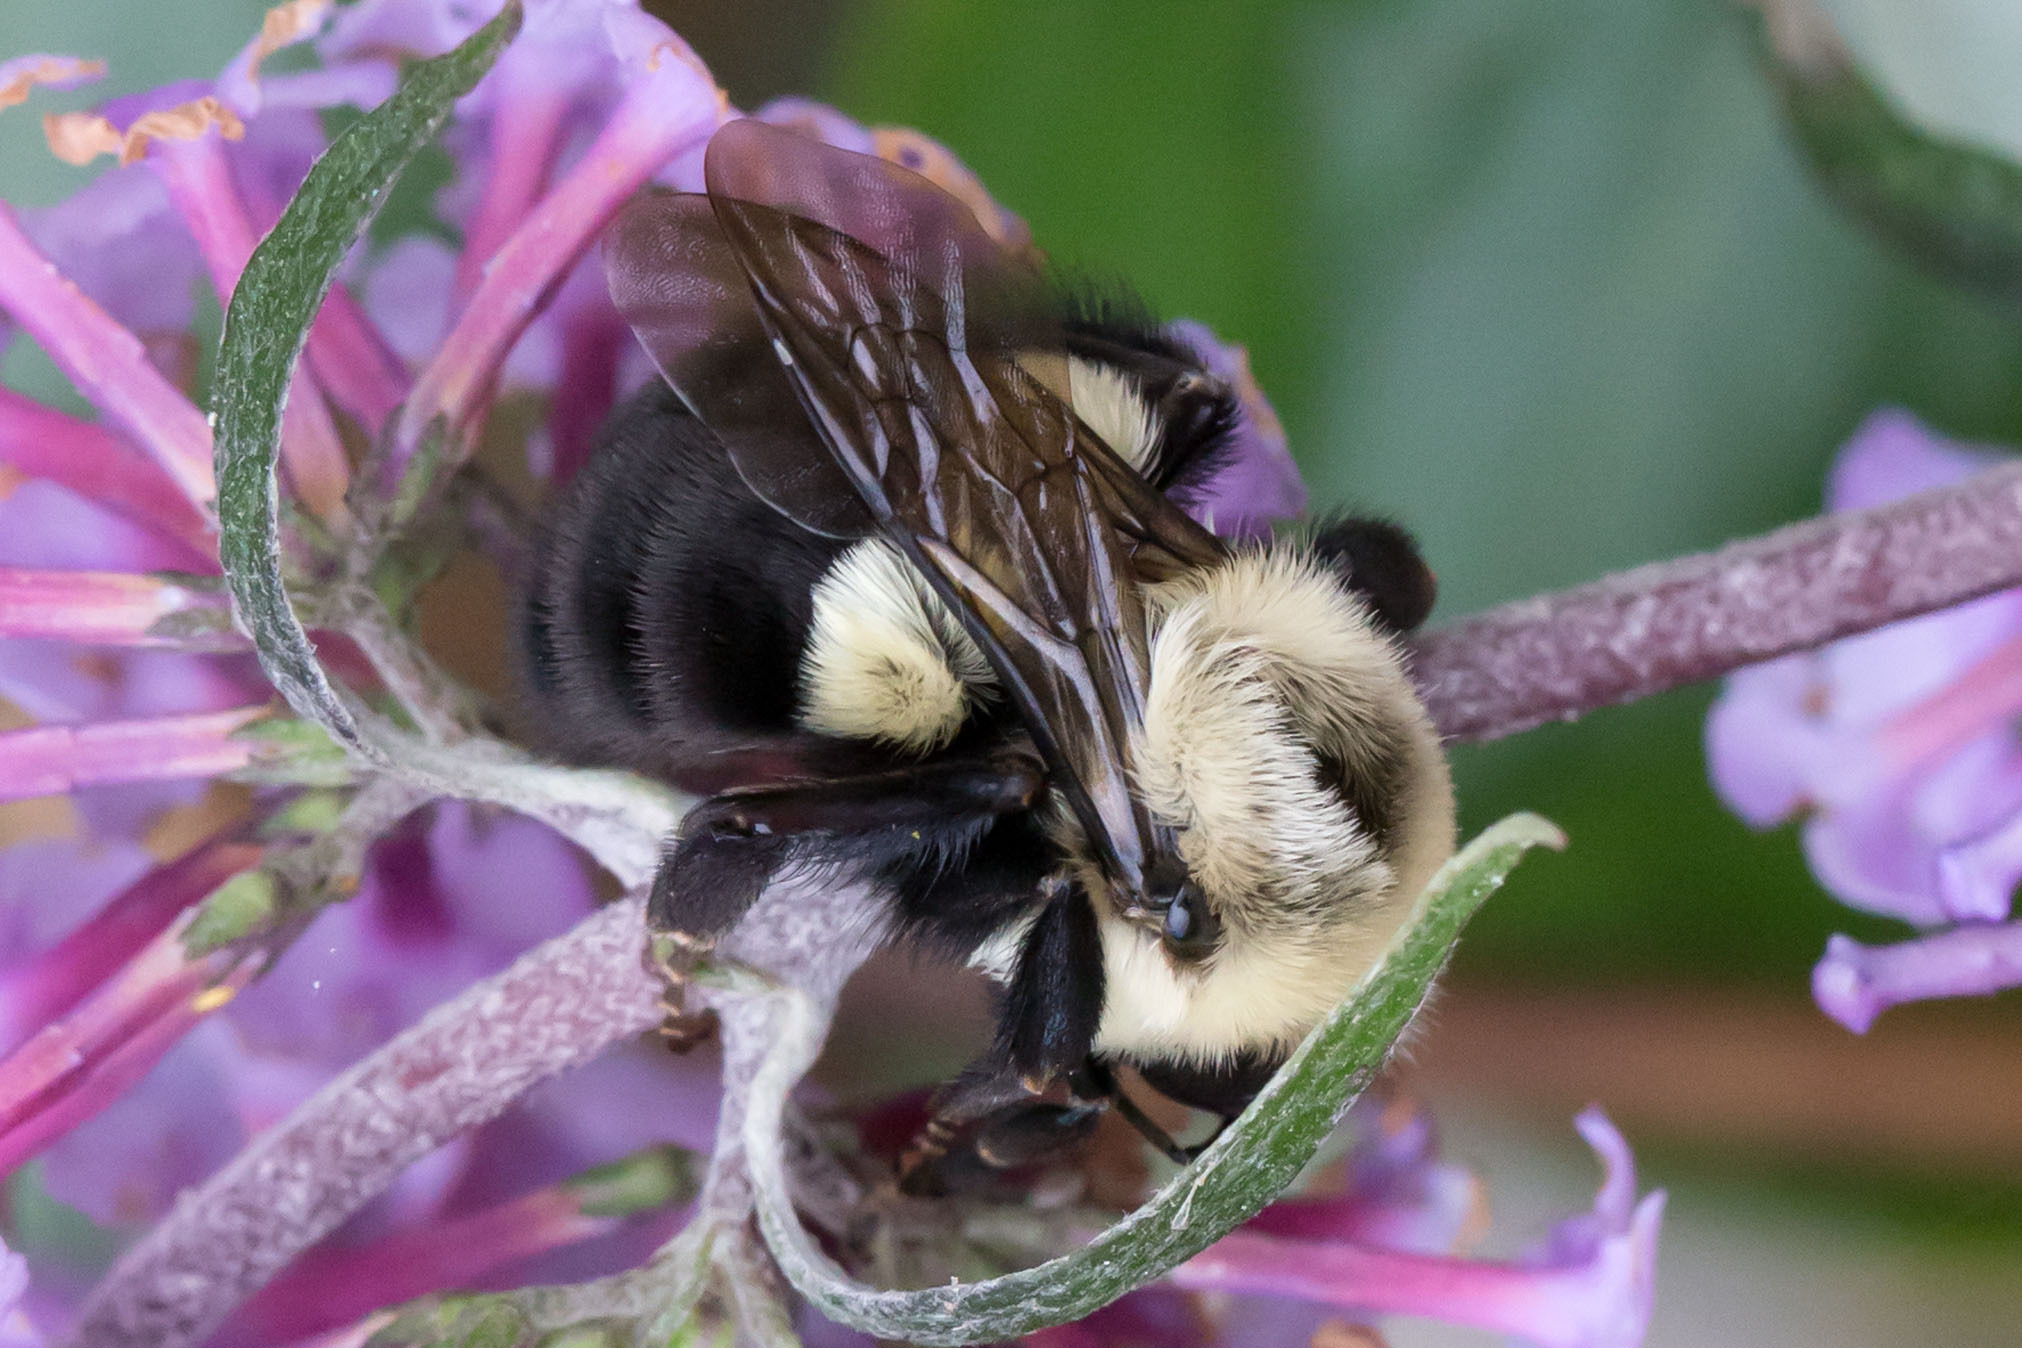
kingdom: Animalia
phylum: Arthropoda
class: Insecta
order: Hymenoptera
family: Apidae
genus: Bombus
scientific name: Bombus impatiens
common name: Common eastern bumble bee
